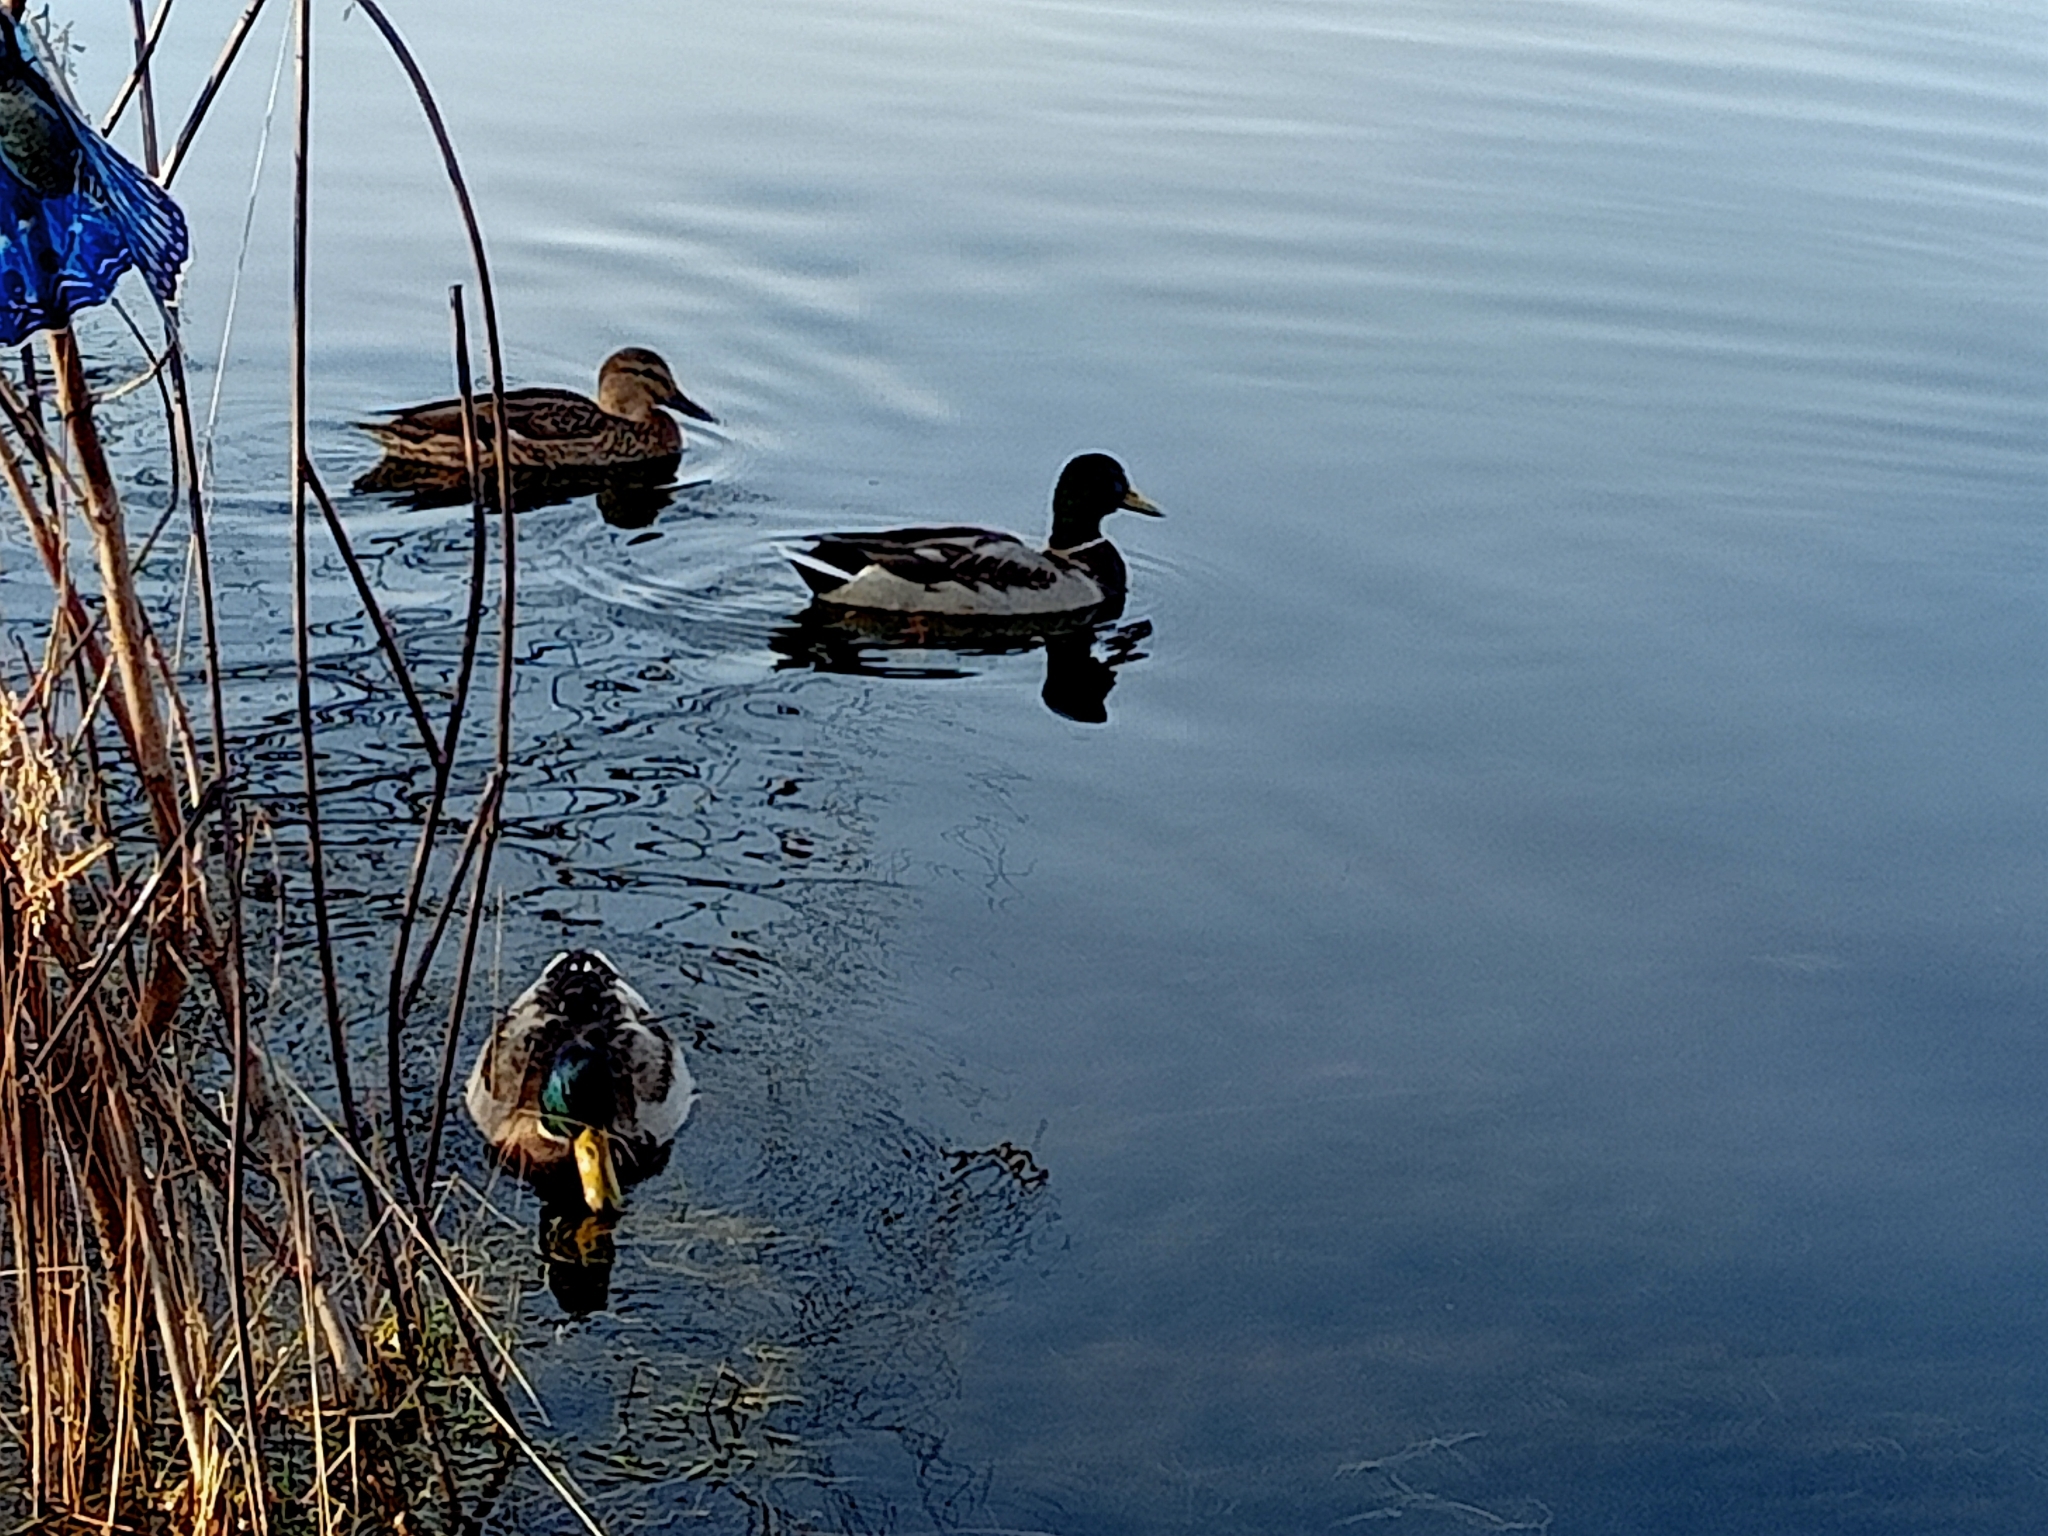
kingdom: Animalia
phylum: Chordata
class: Aves
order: Anseriformes
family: Anatidae
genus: Anas
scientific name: Anas platyrhynchos
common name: Mallard
